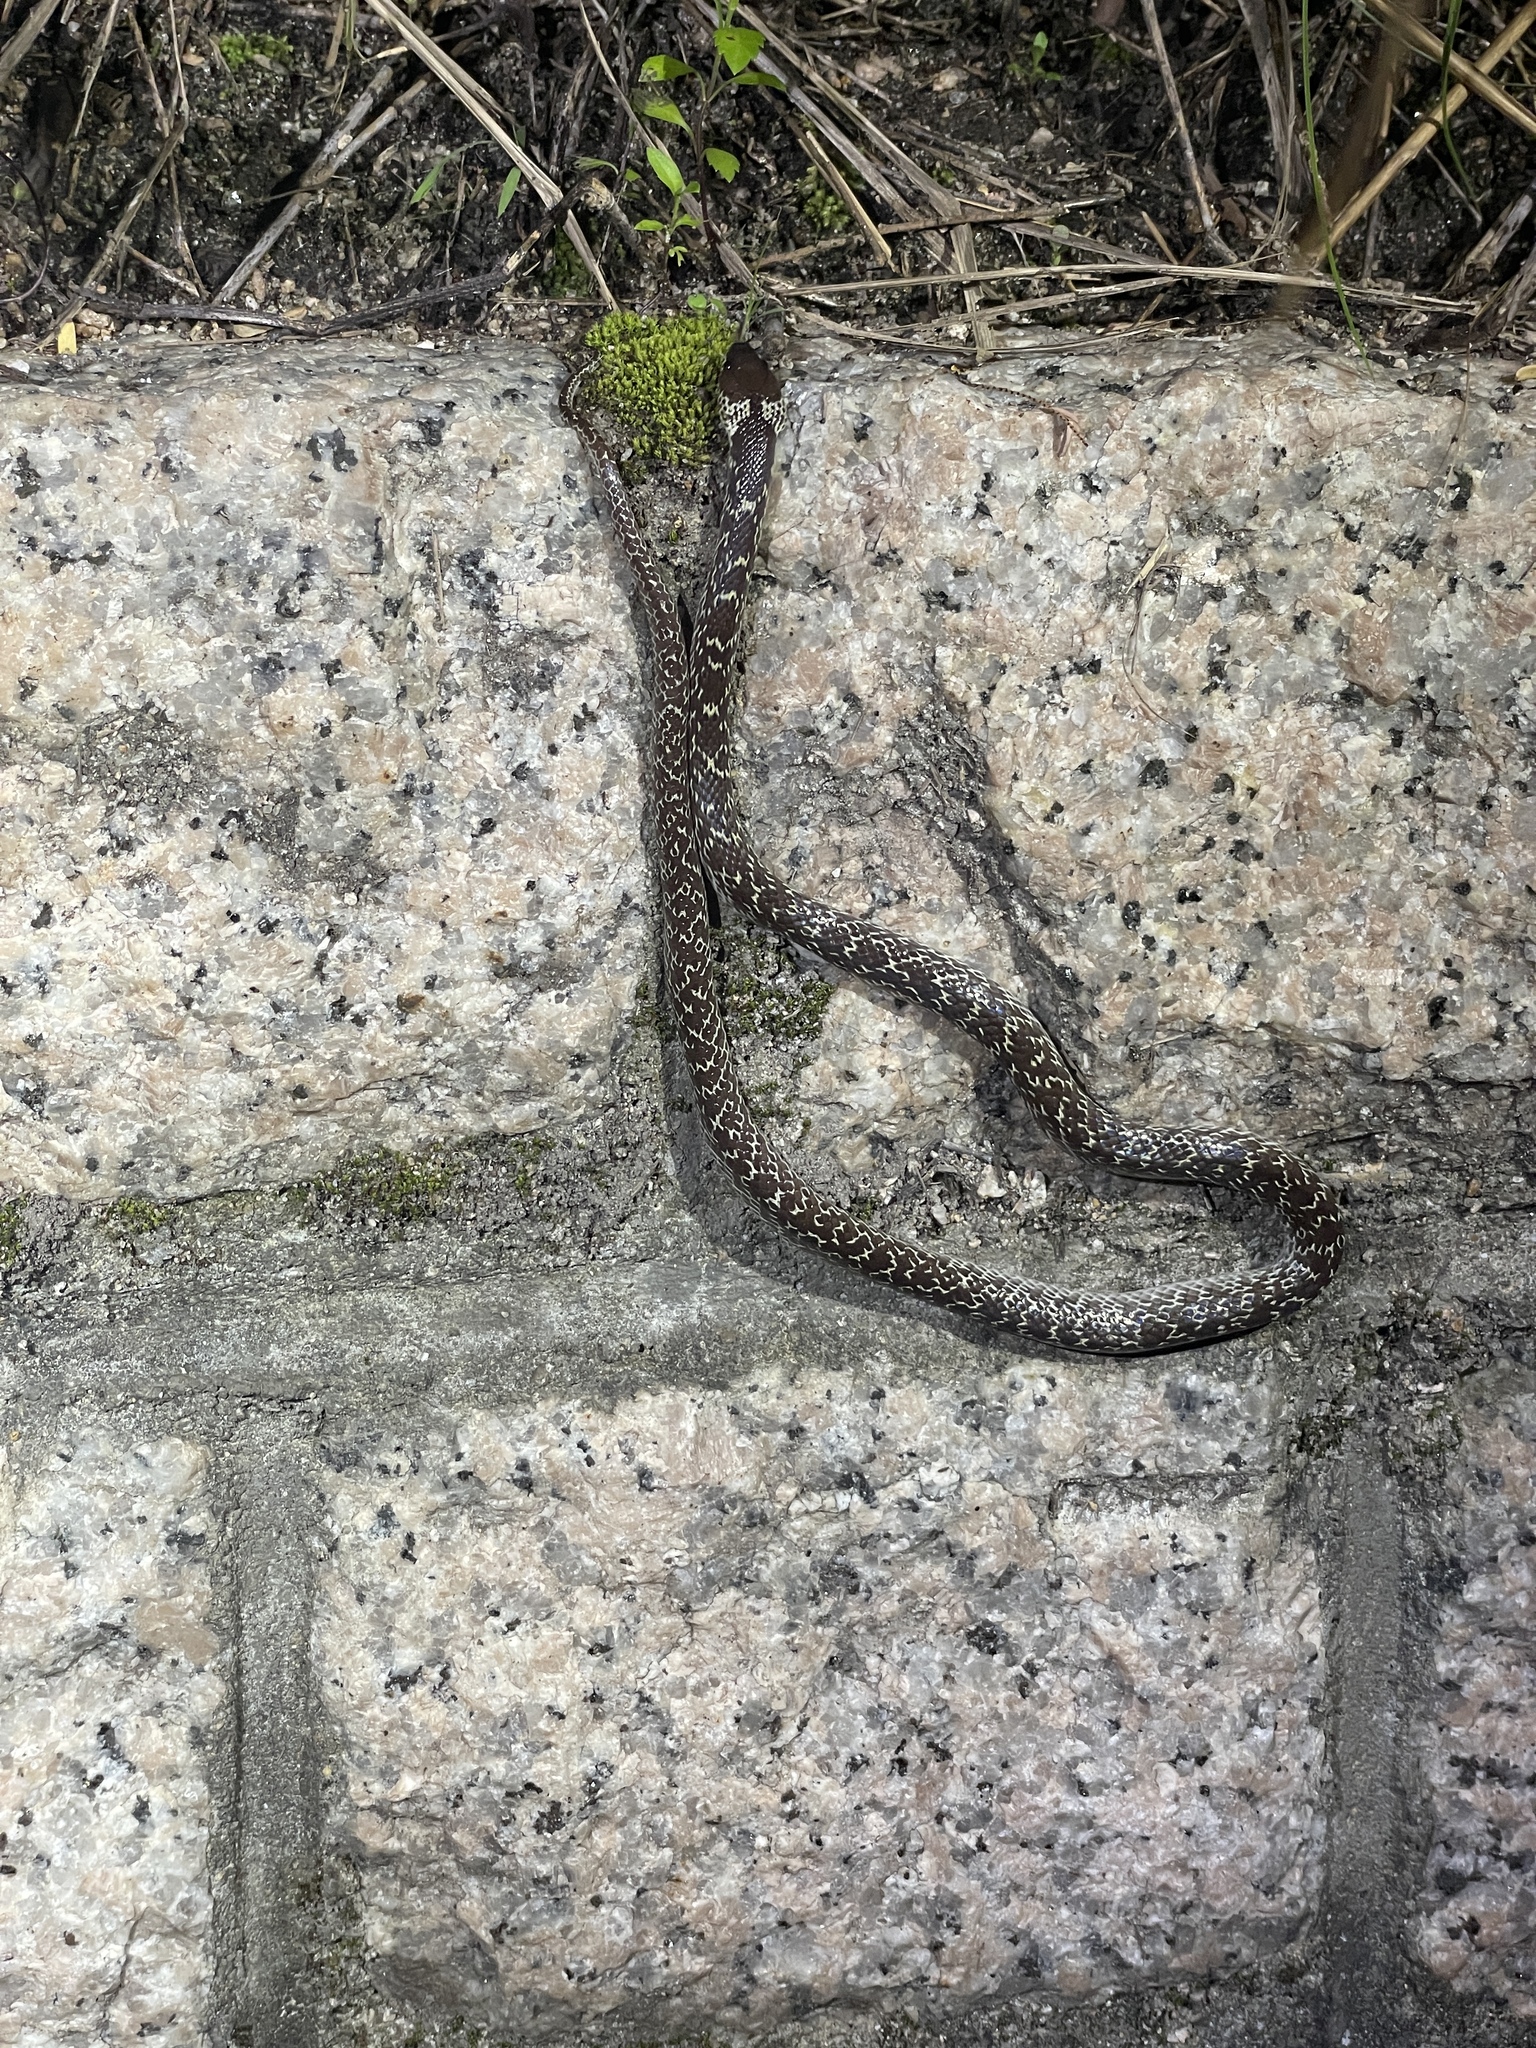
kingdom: Animalia
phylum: Chordata
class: Squamata
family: Colubridae
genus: Lycodon
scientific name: Lycodon capucinus
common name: Common wold snake/house snake
